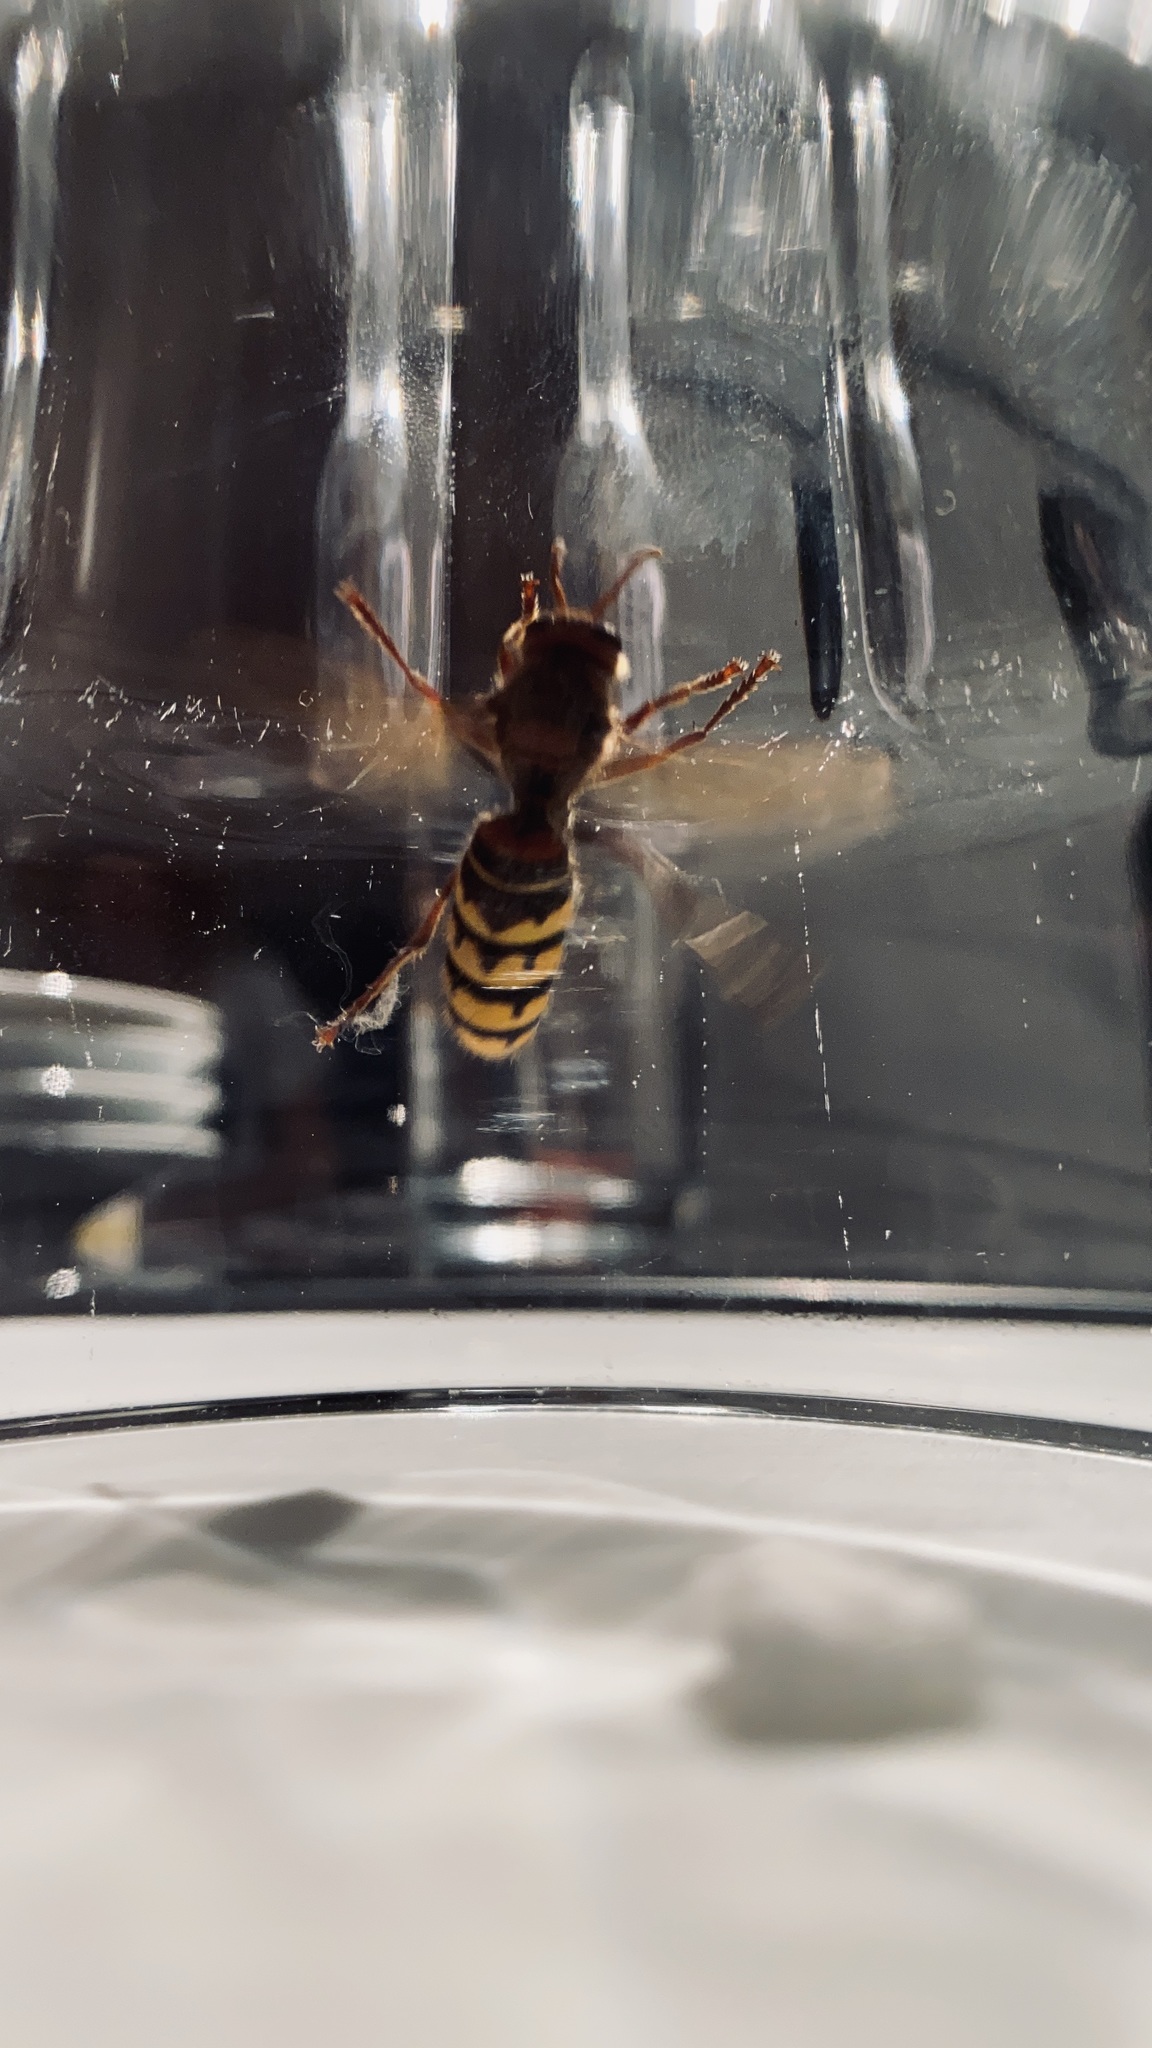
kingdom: Animalia
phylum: Arthropoda
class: Insecta
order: Hymenoptera
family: Vespidae
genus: Vespa
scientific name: Vespa crabro
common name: Hornet
